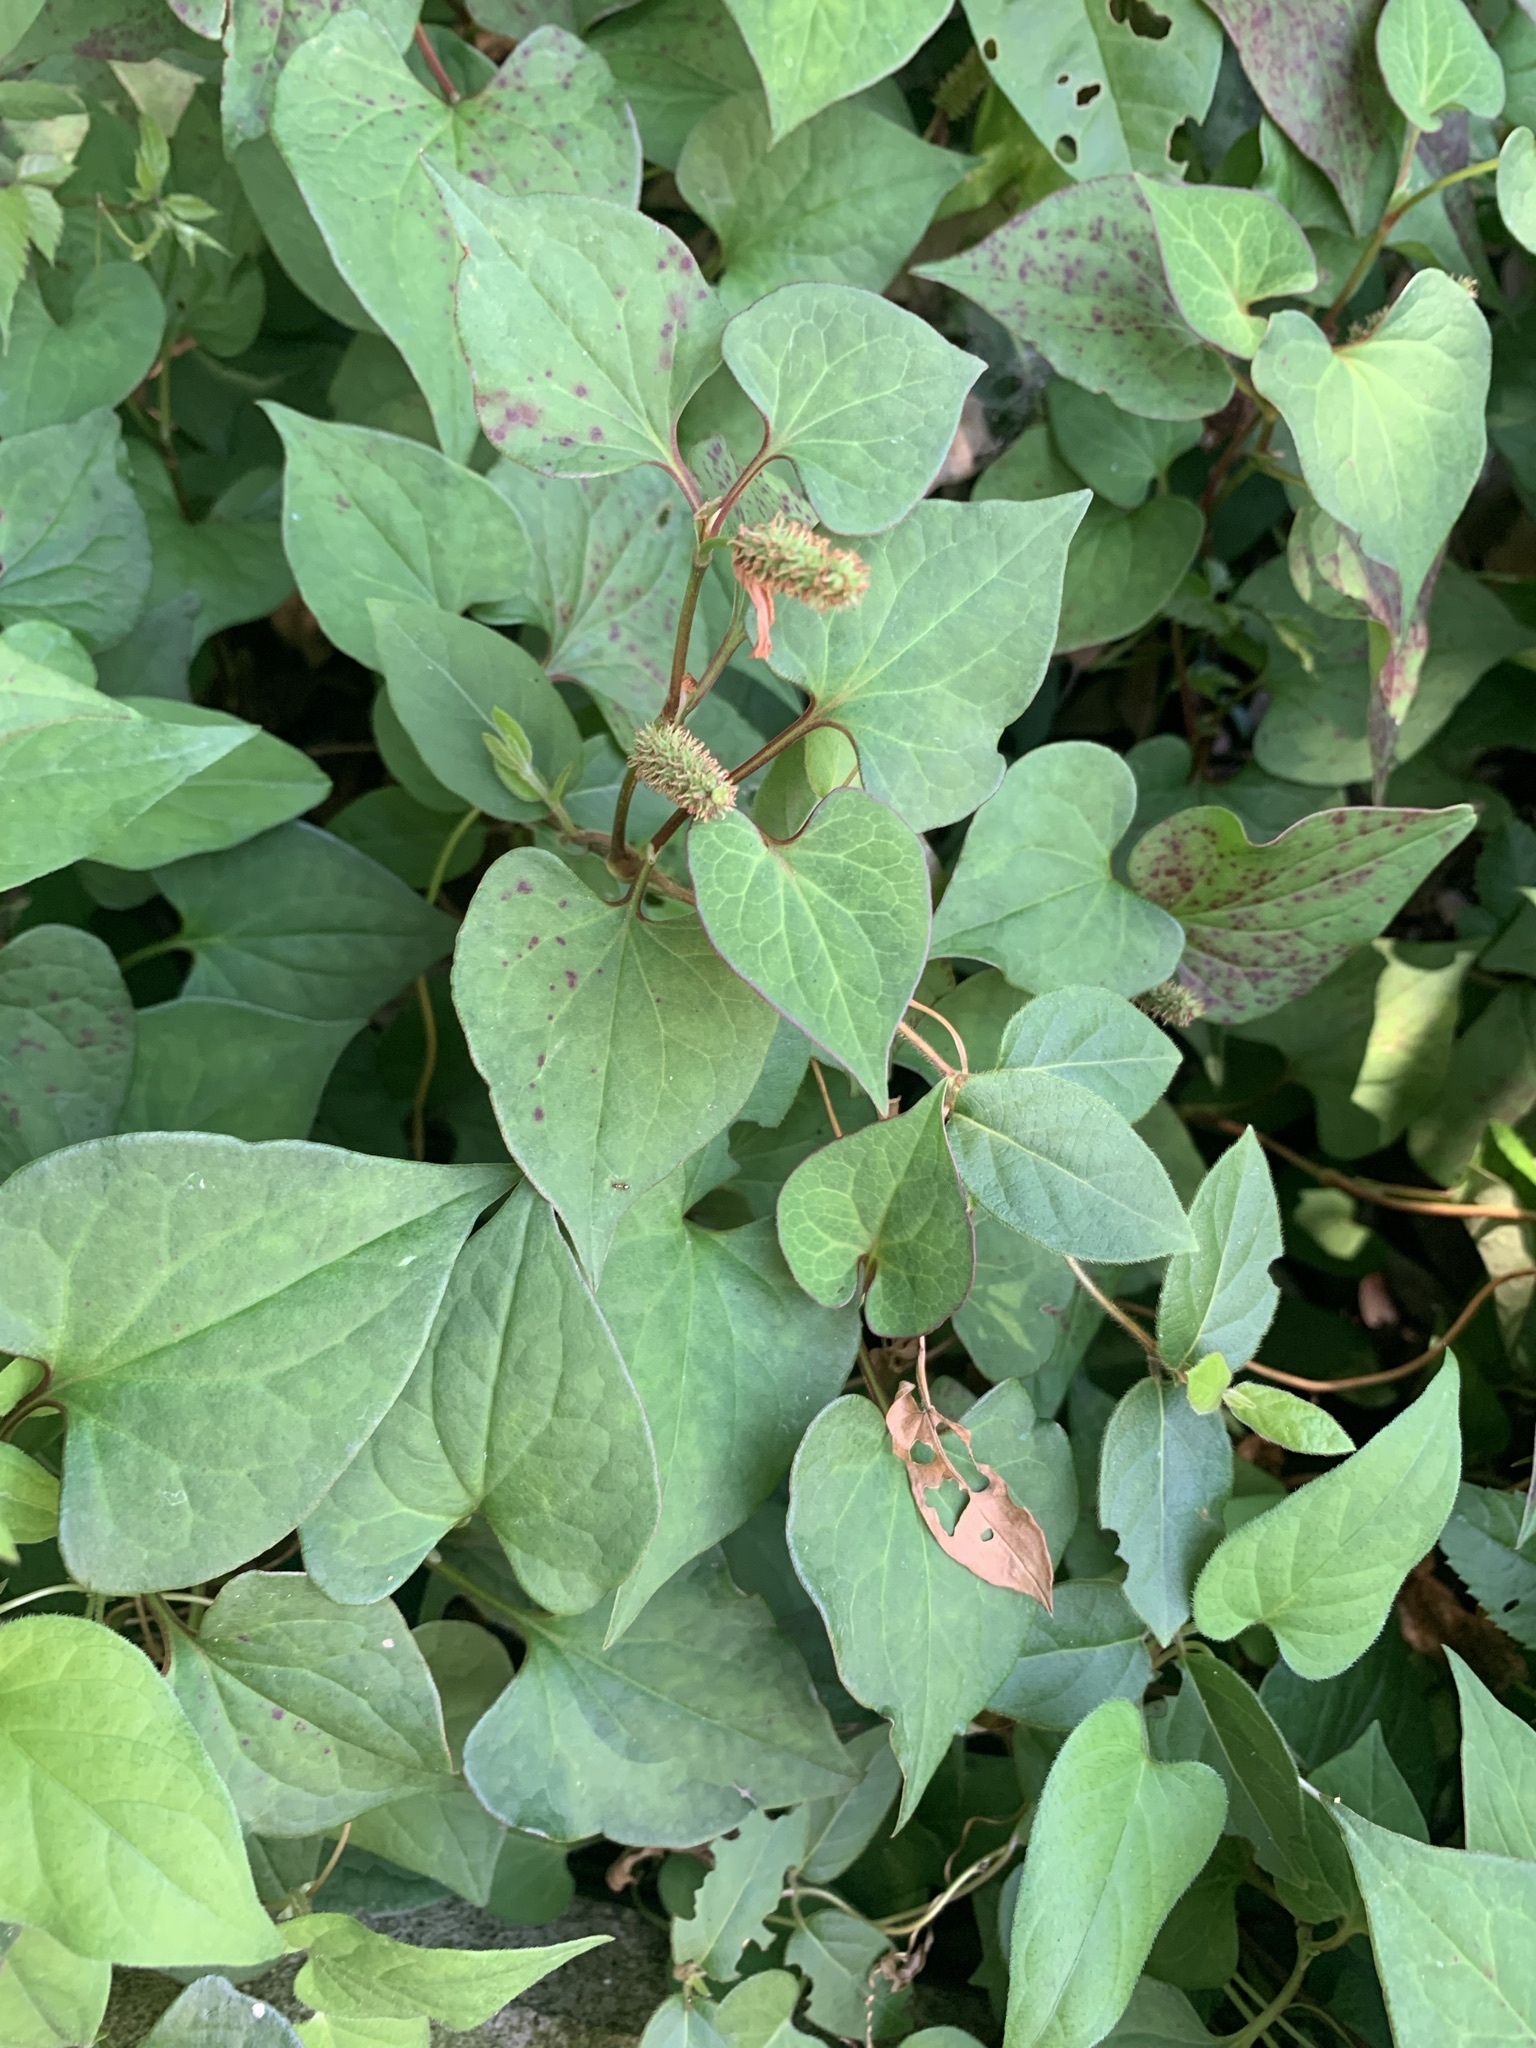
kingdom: Plantae
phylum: Tracheophyta
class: Magnoliopsida
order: Piperales
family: Saururaceae
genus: Houttuynia
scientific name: Houttuynia cordata
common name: Chameleon
